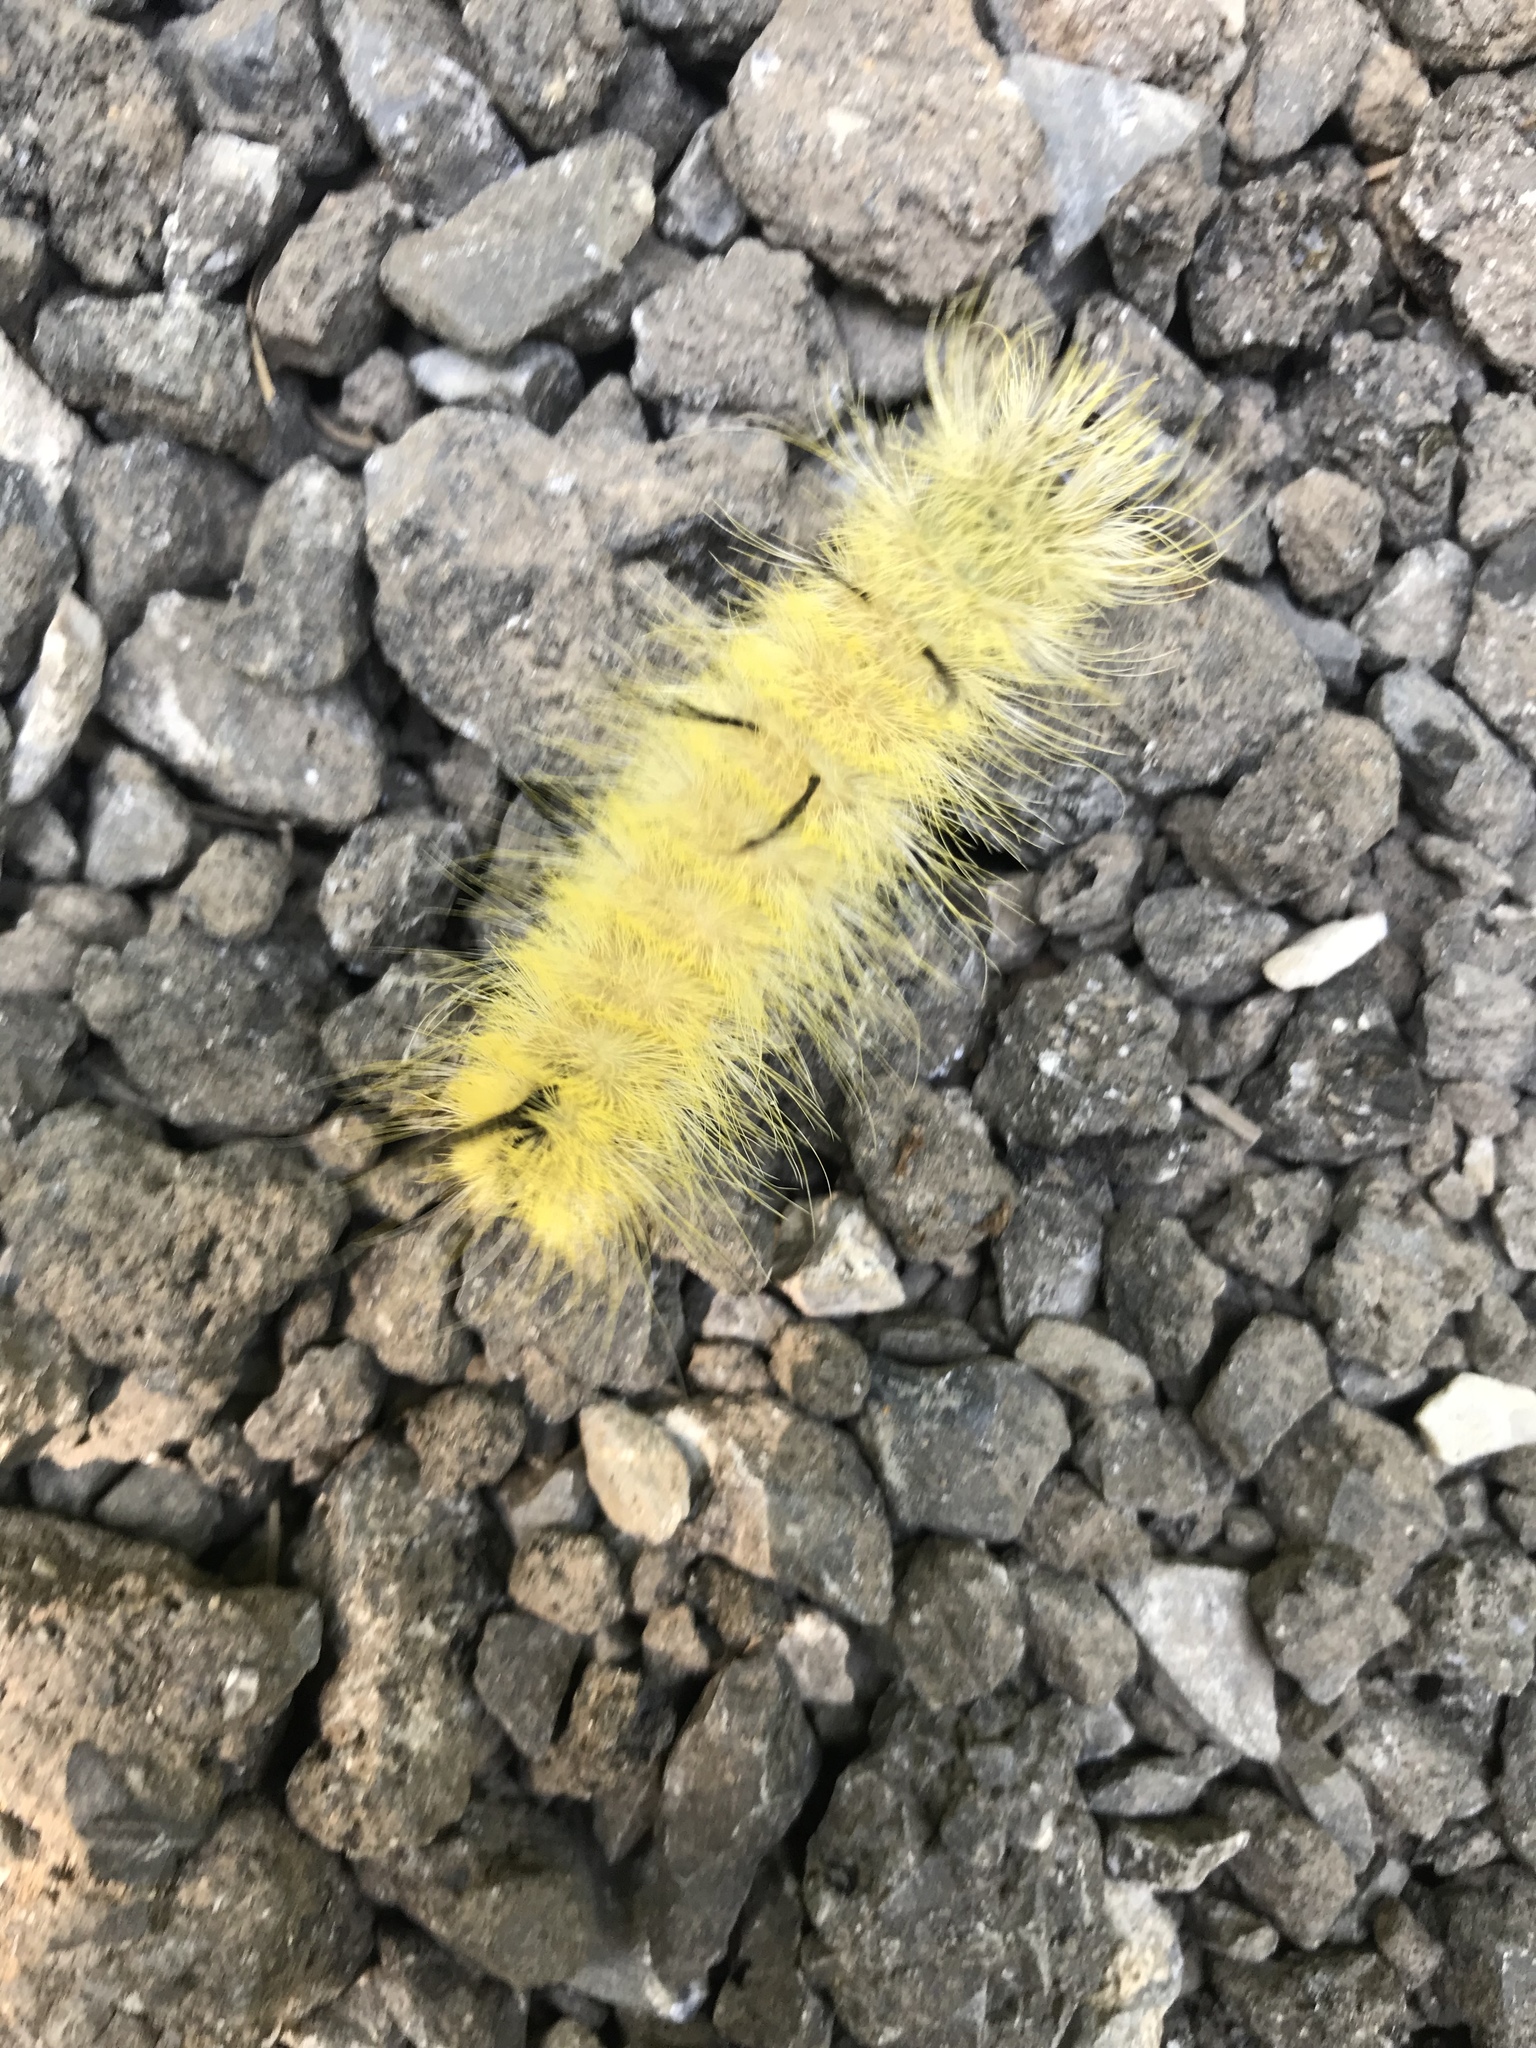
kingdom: Animalia
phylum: Arthropoda
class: Insecta
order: Lepidoptera
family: Noctuidae
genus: Acronicta
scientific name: Acronicta americana
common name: American dagger
